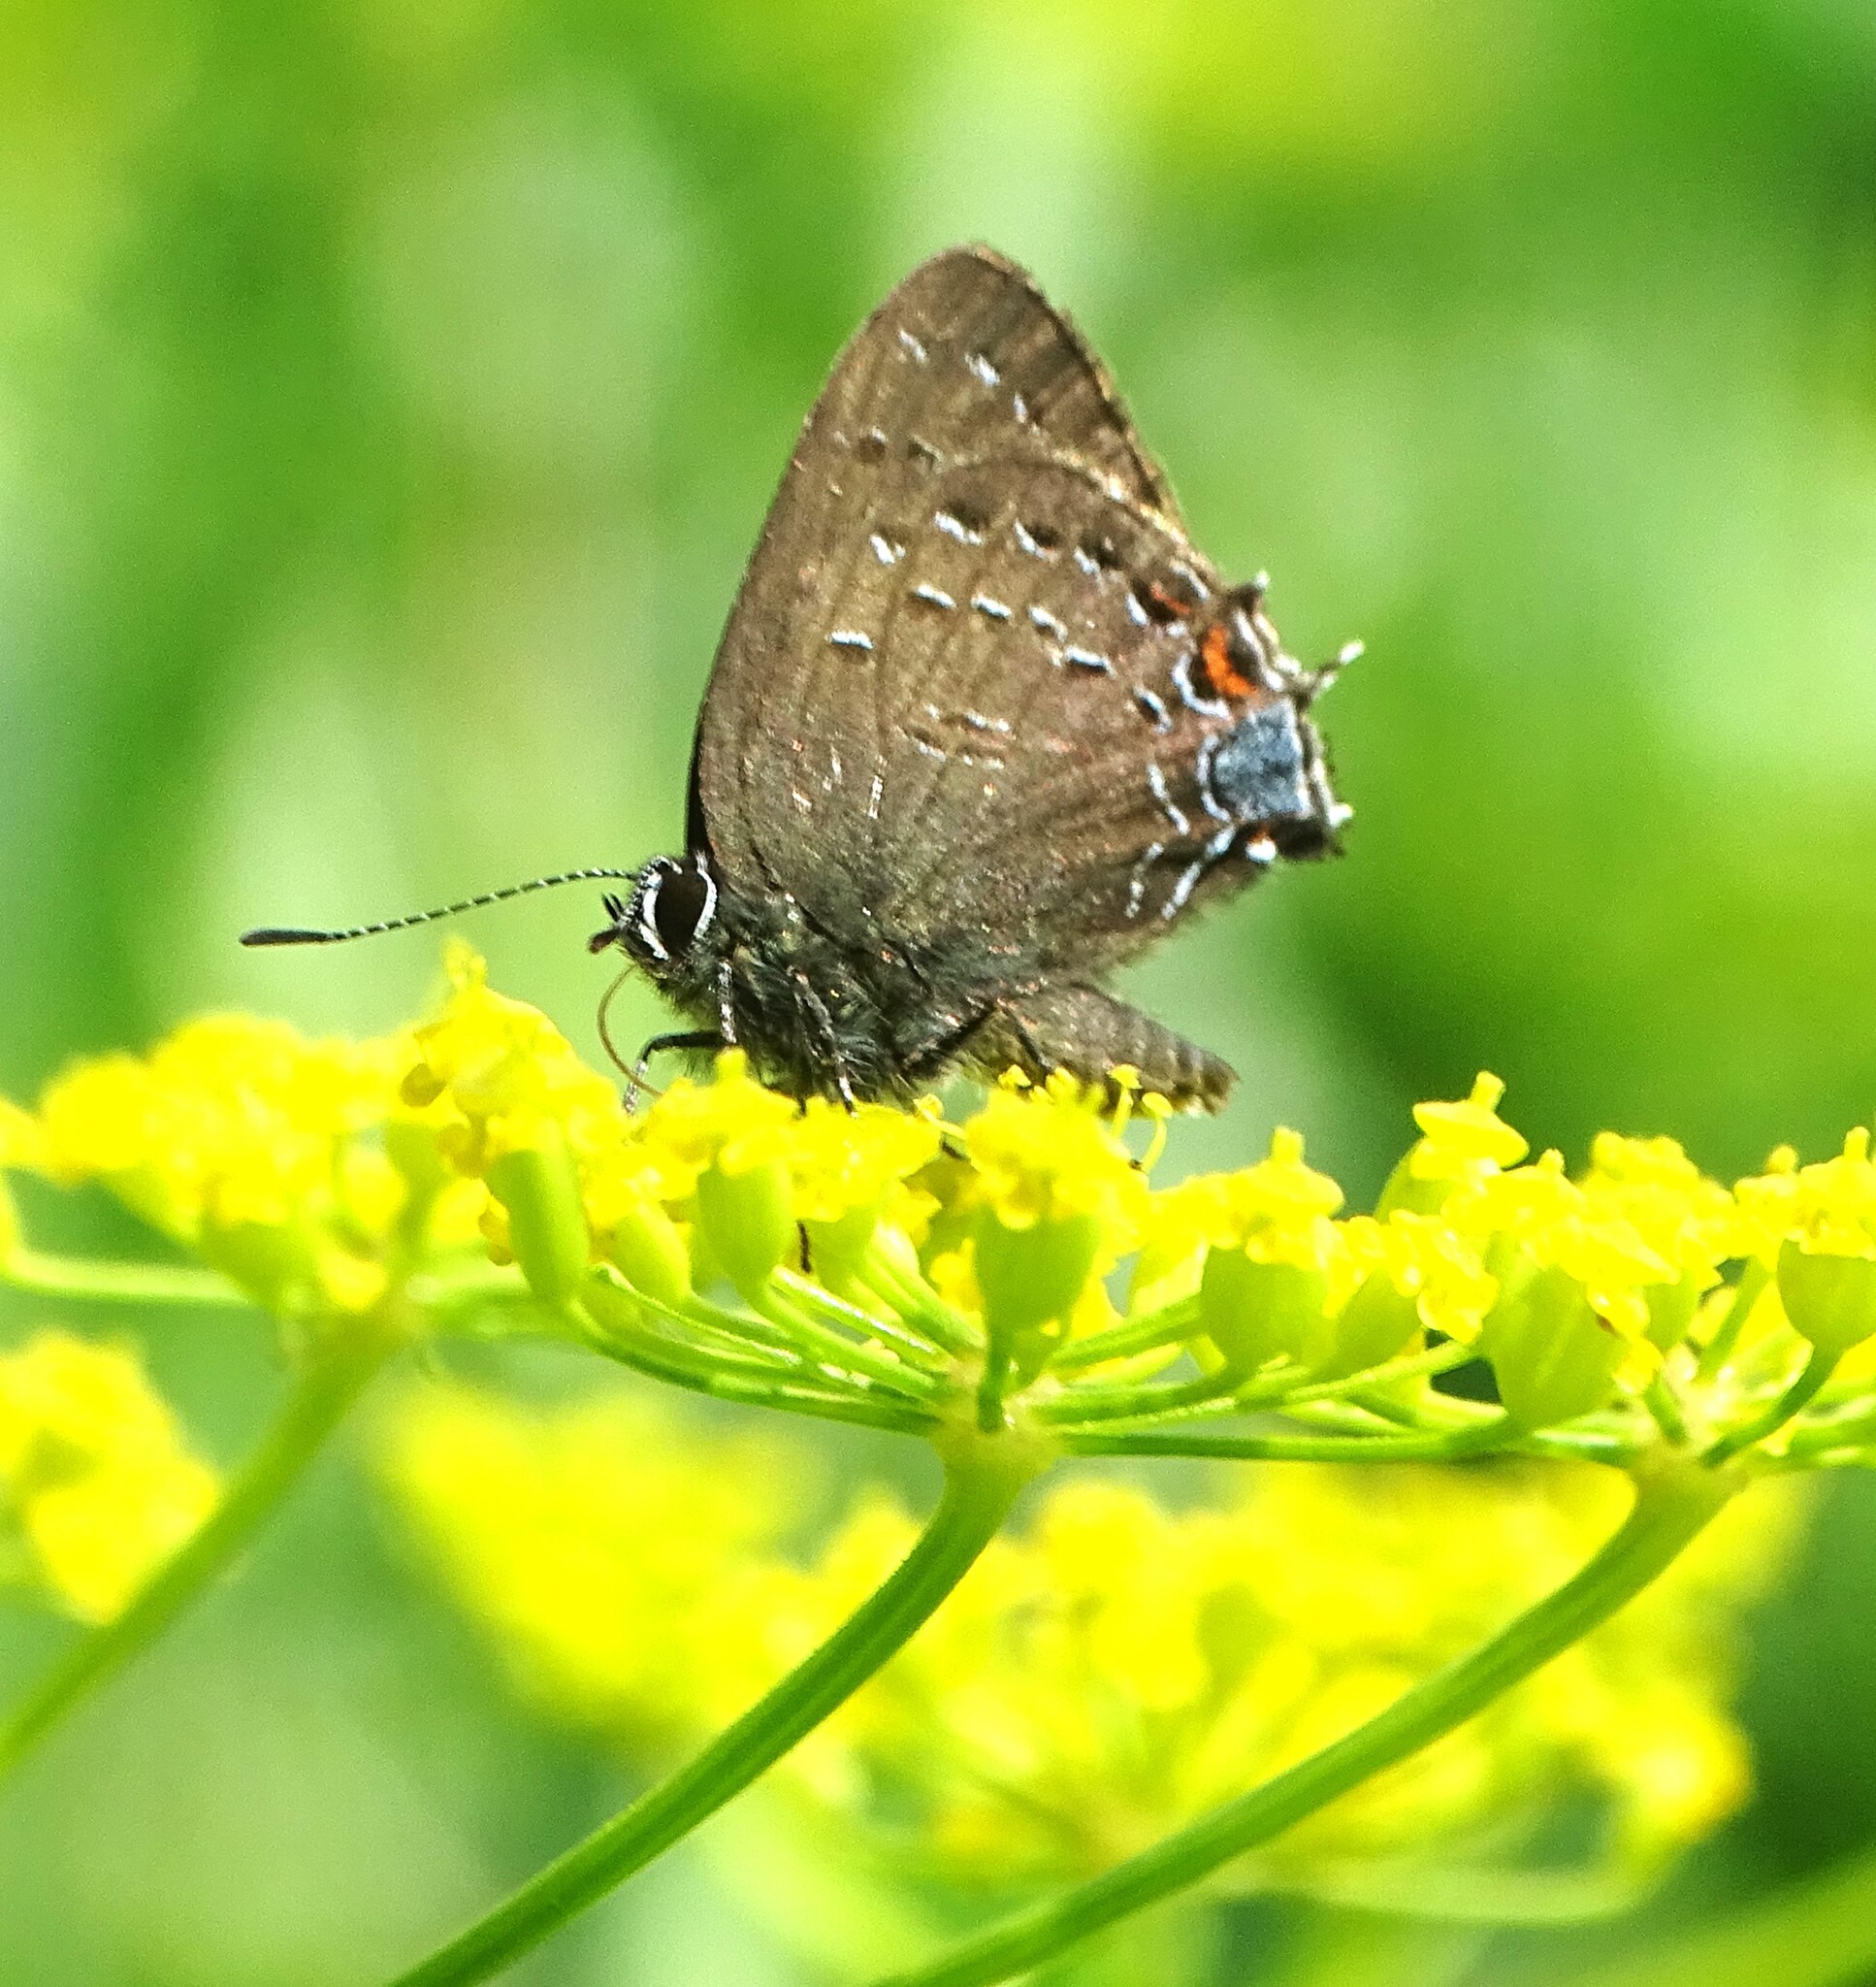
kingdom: Animalia
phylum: Arthropoda
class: Insecta
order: Lepidoptera
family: Lycaenidae
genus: Satyrium
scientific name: Satyrium calanus
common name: Banded hairstreak
